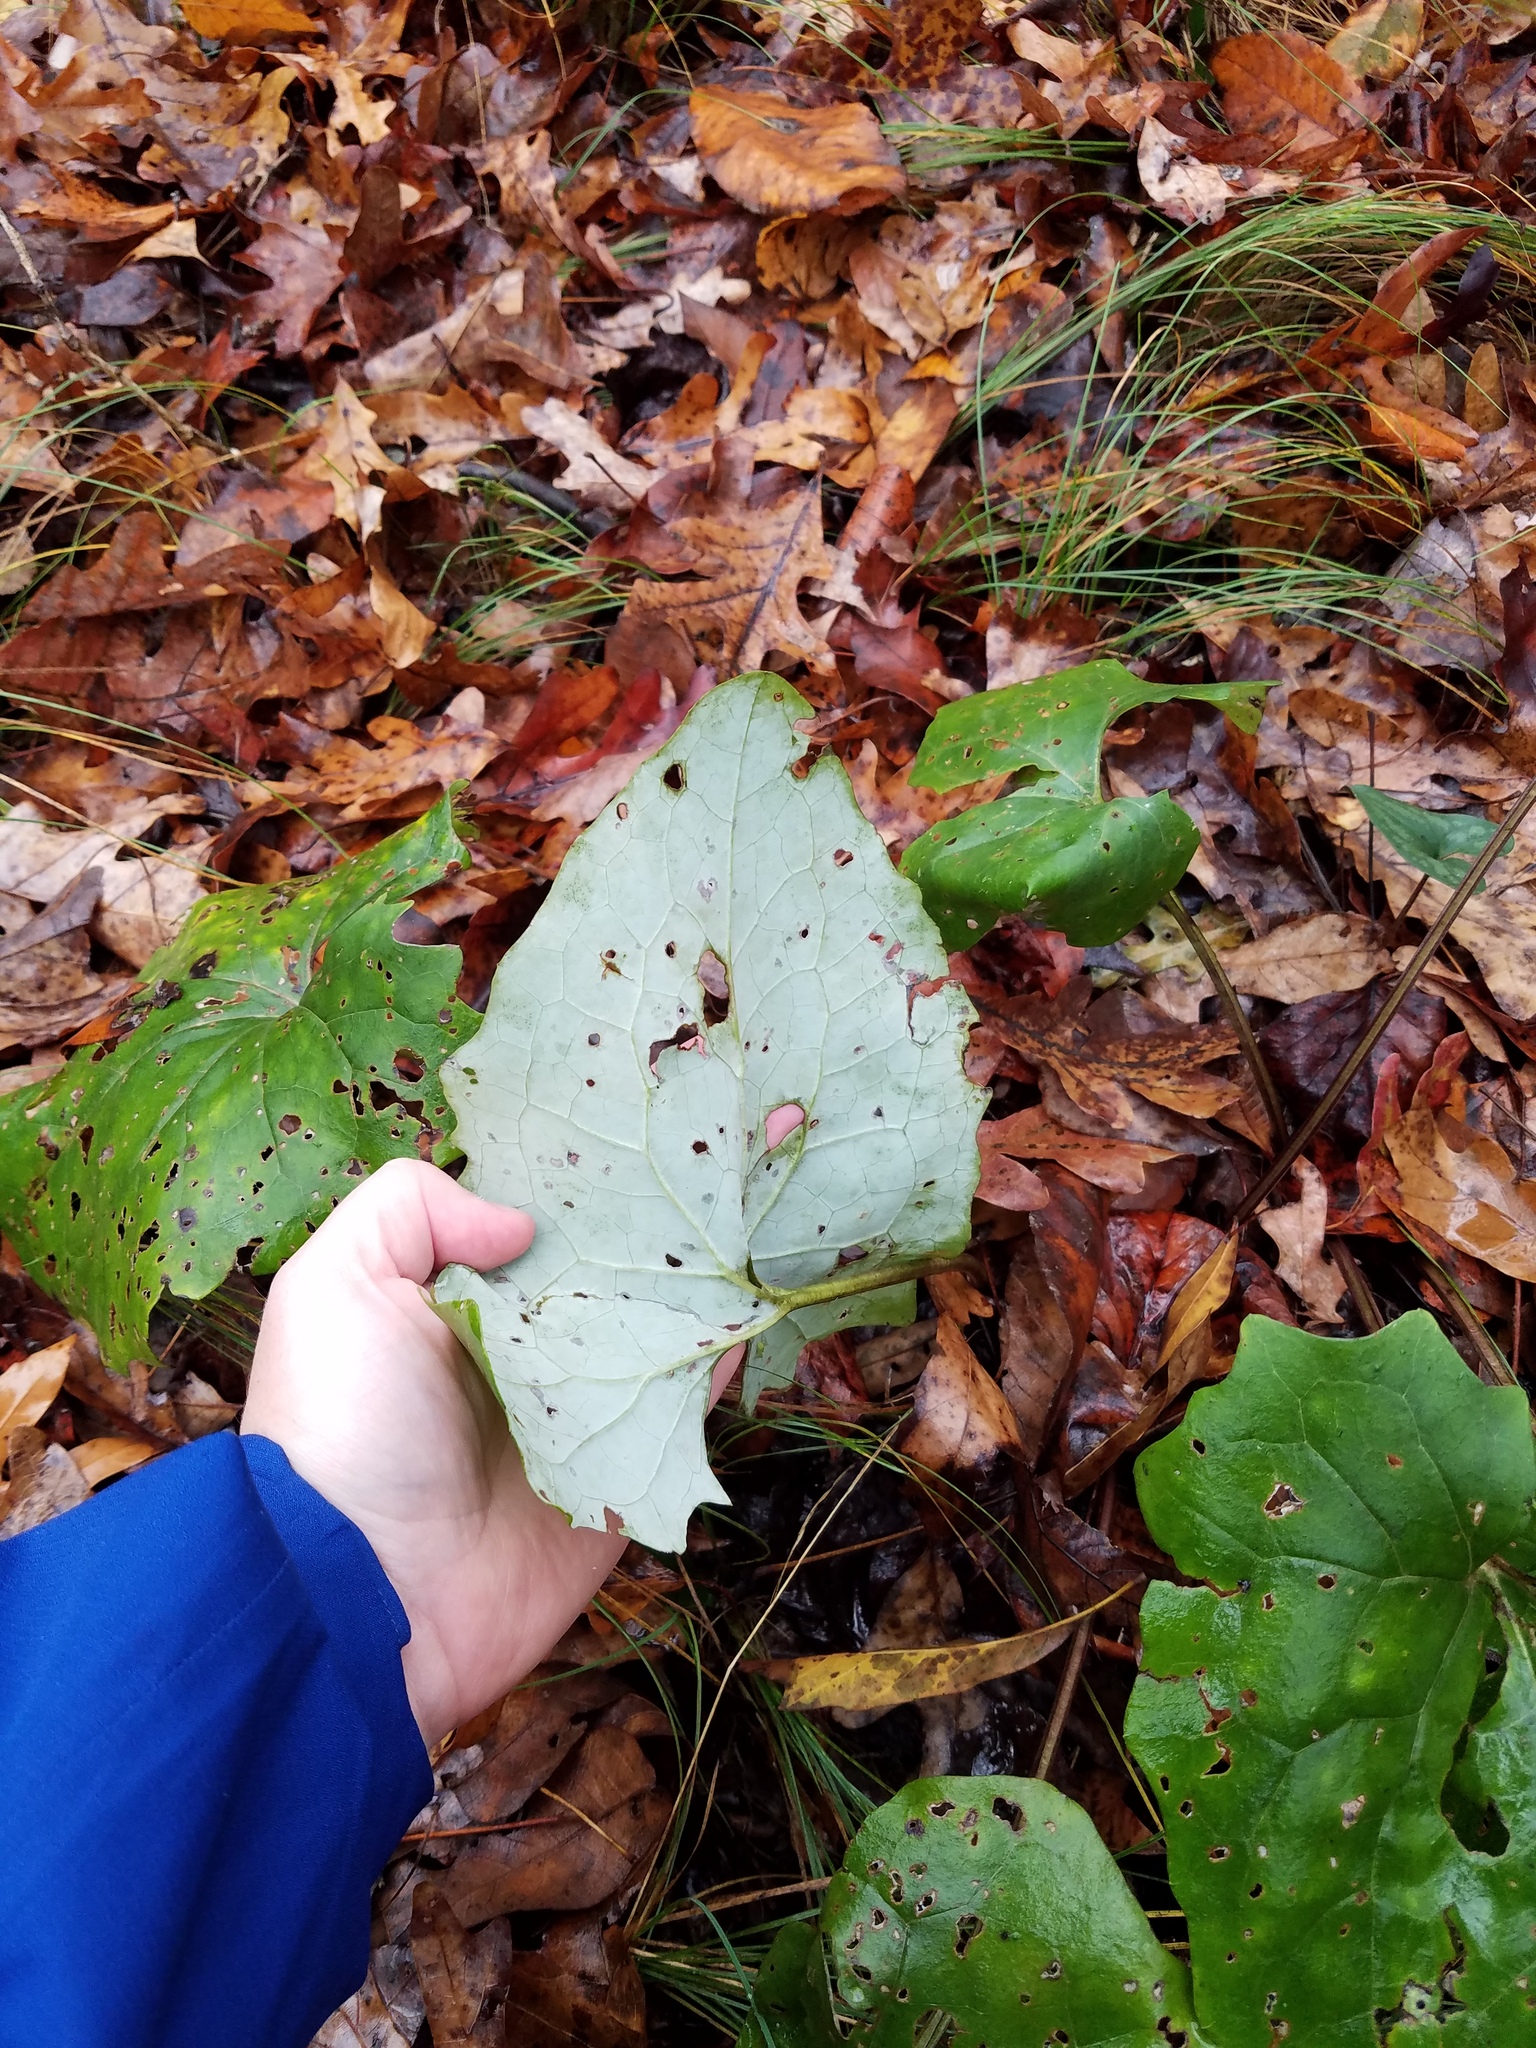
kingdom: Plantae
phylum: Tracheophyta
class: Magnoliopsida
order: Asterales
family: Asteraceae
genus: Arnoglossum
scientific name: Arnoglossum atriplicifolium
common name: Pale indian-plantain
